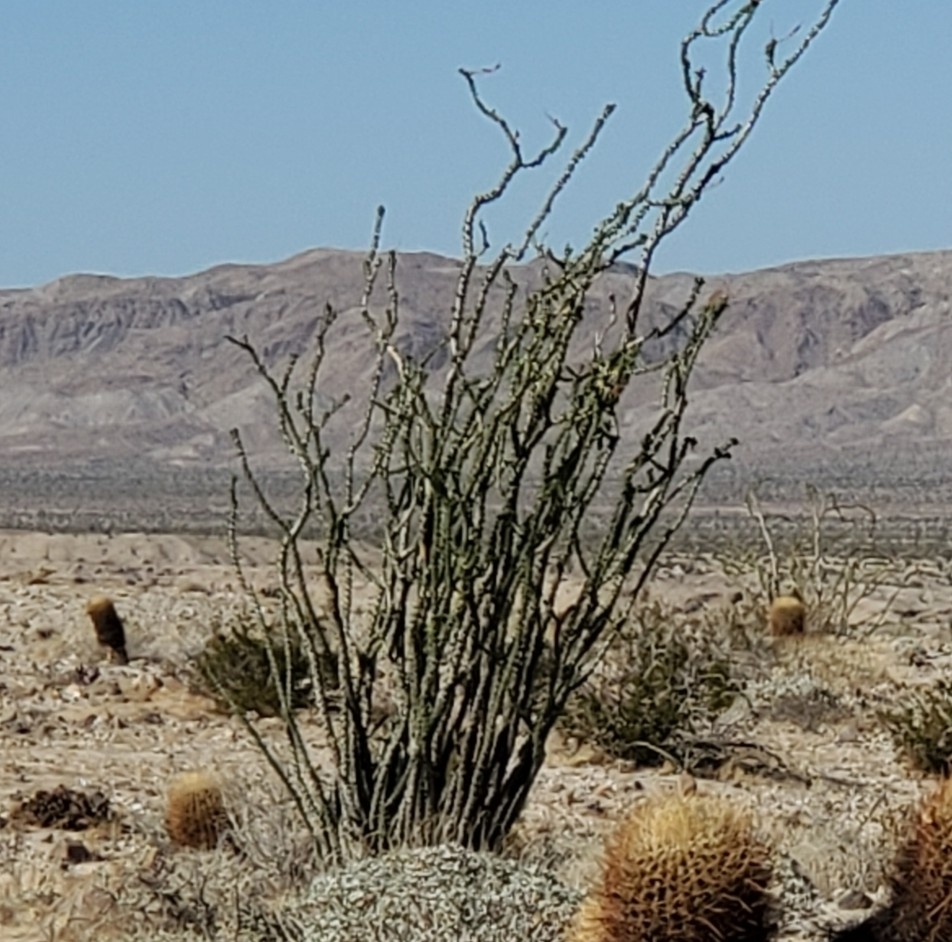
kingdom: Plantae
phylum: Tracheophyta
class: Magnoliopsida
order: Ericales
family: Fouquieriaceae
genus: Fouquieria
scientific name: Fouquieria splendens
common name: Vine-cactus
